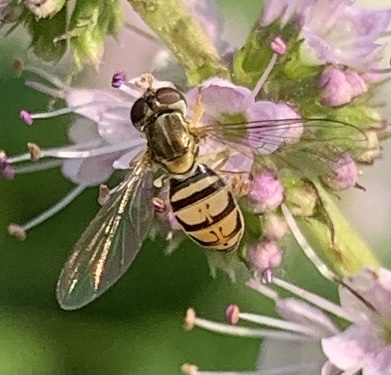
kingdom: Animalia
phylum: Arthropoda
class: Insecta
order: Diptera
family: Syrphidae
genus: Toxomerus
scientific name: Toxomerus marginatus
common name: Syrphid fly
